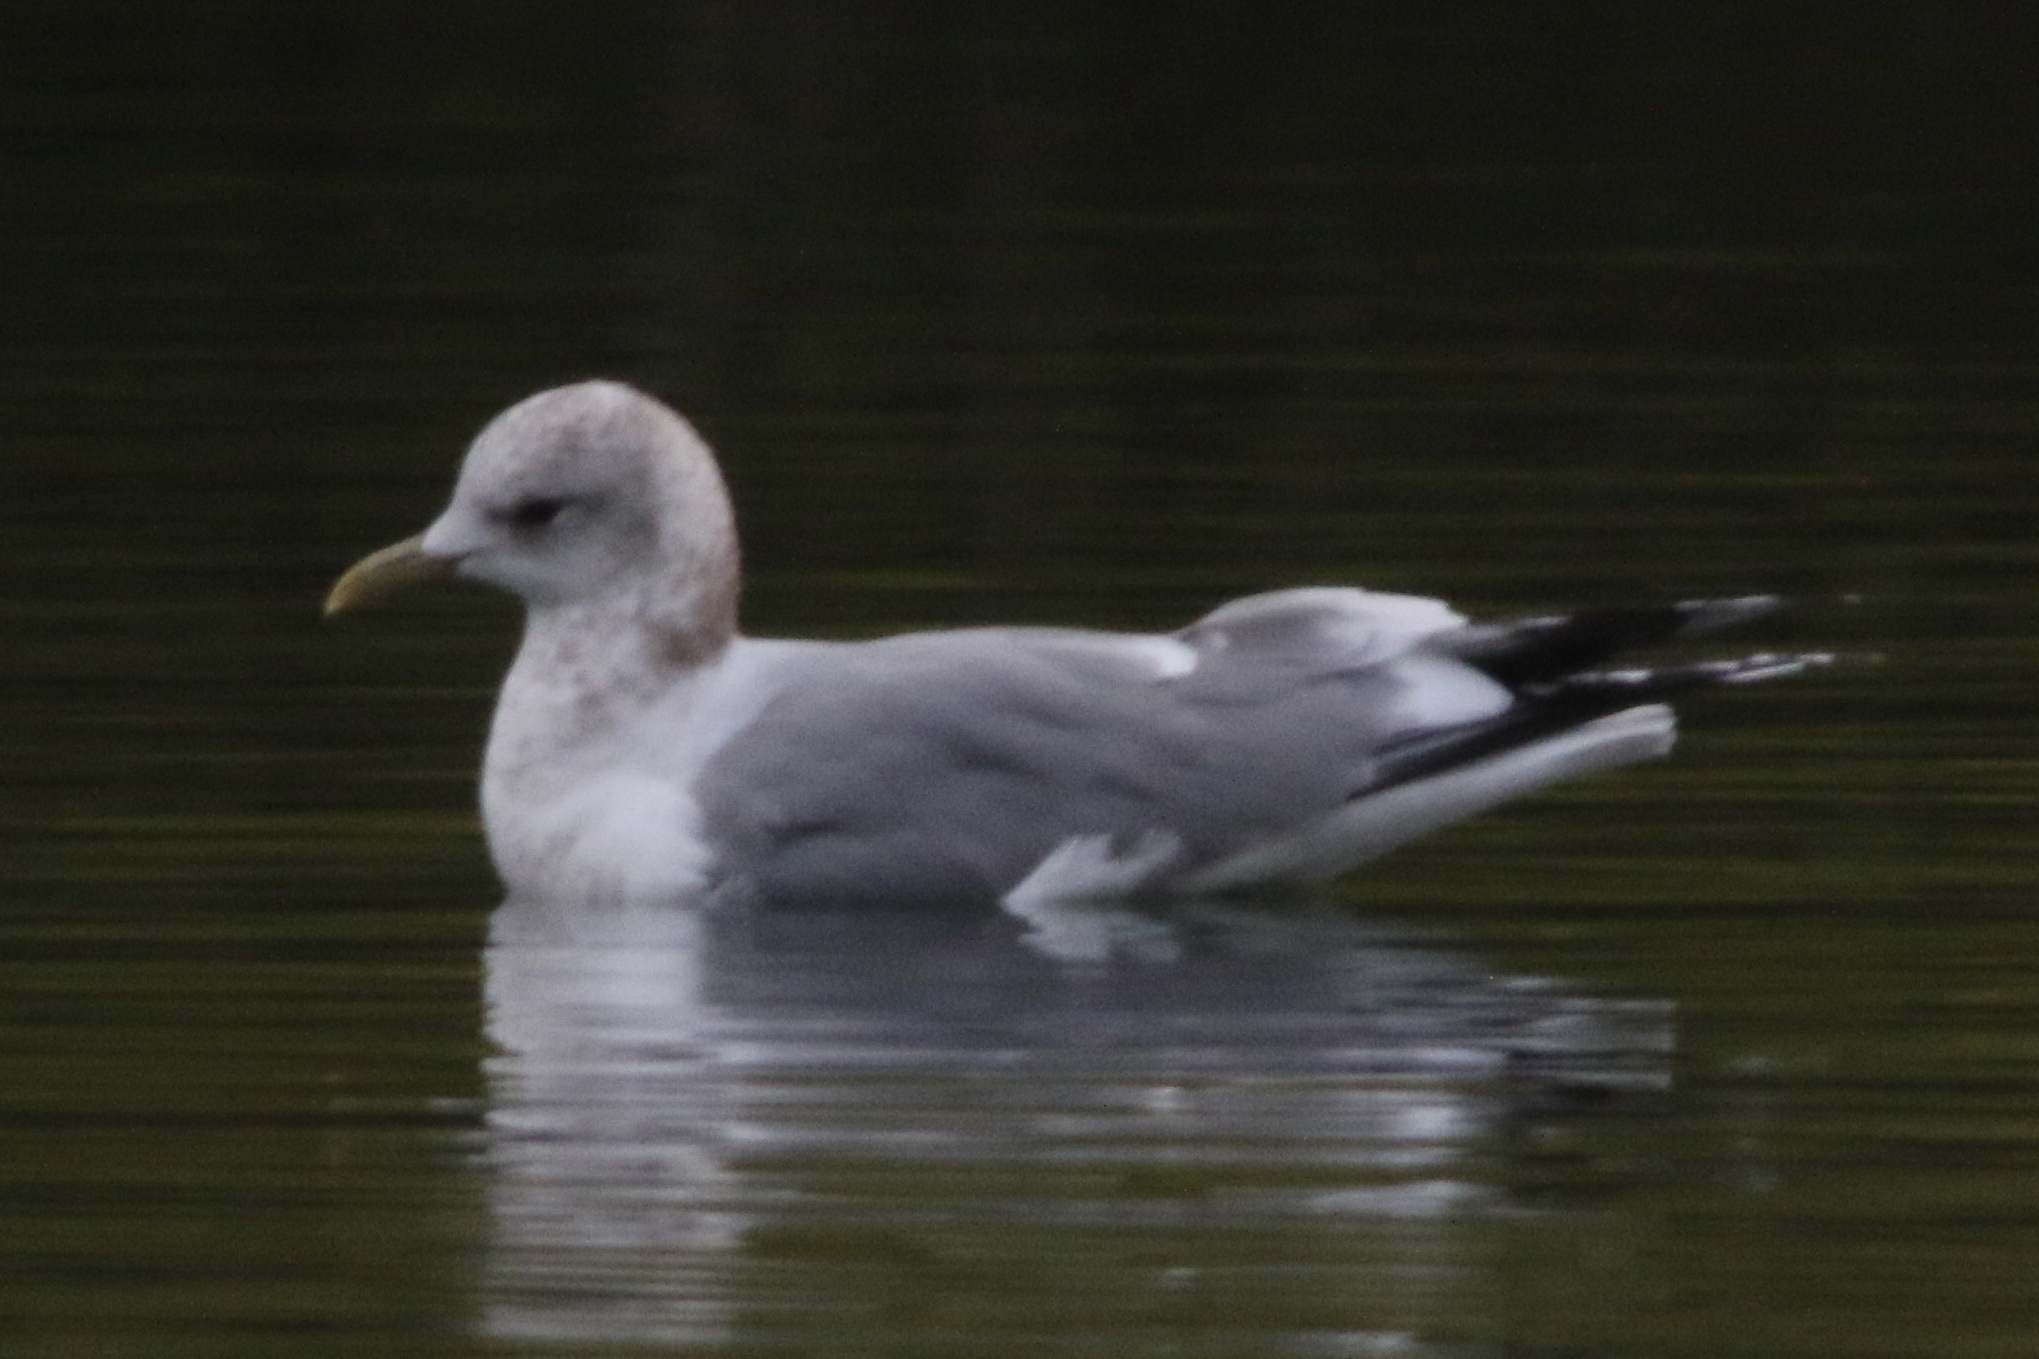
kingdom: Animalia
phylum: Chordata
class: Aves
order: Charadriiformes
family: Laridae
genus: Larus
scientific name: Larus brachyrhynchus
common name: Short-billed gull
